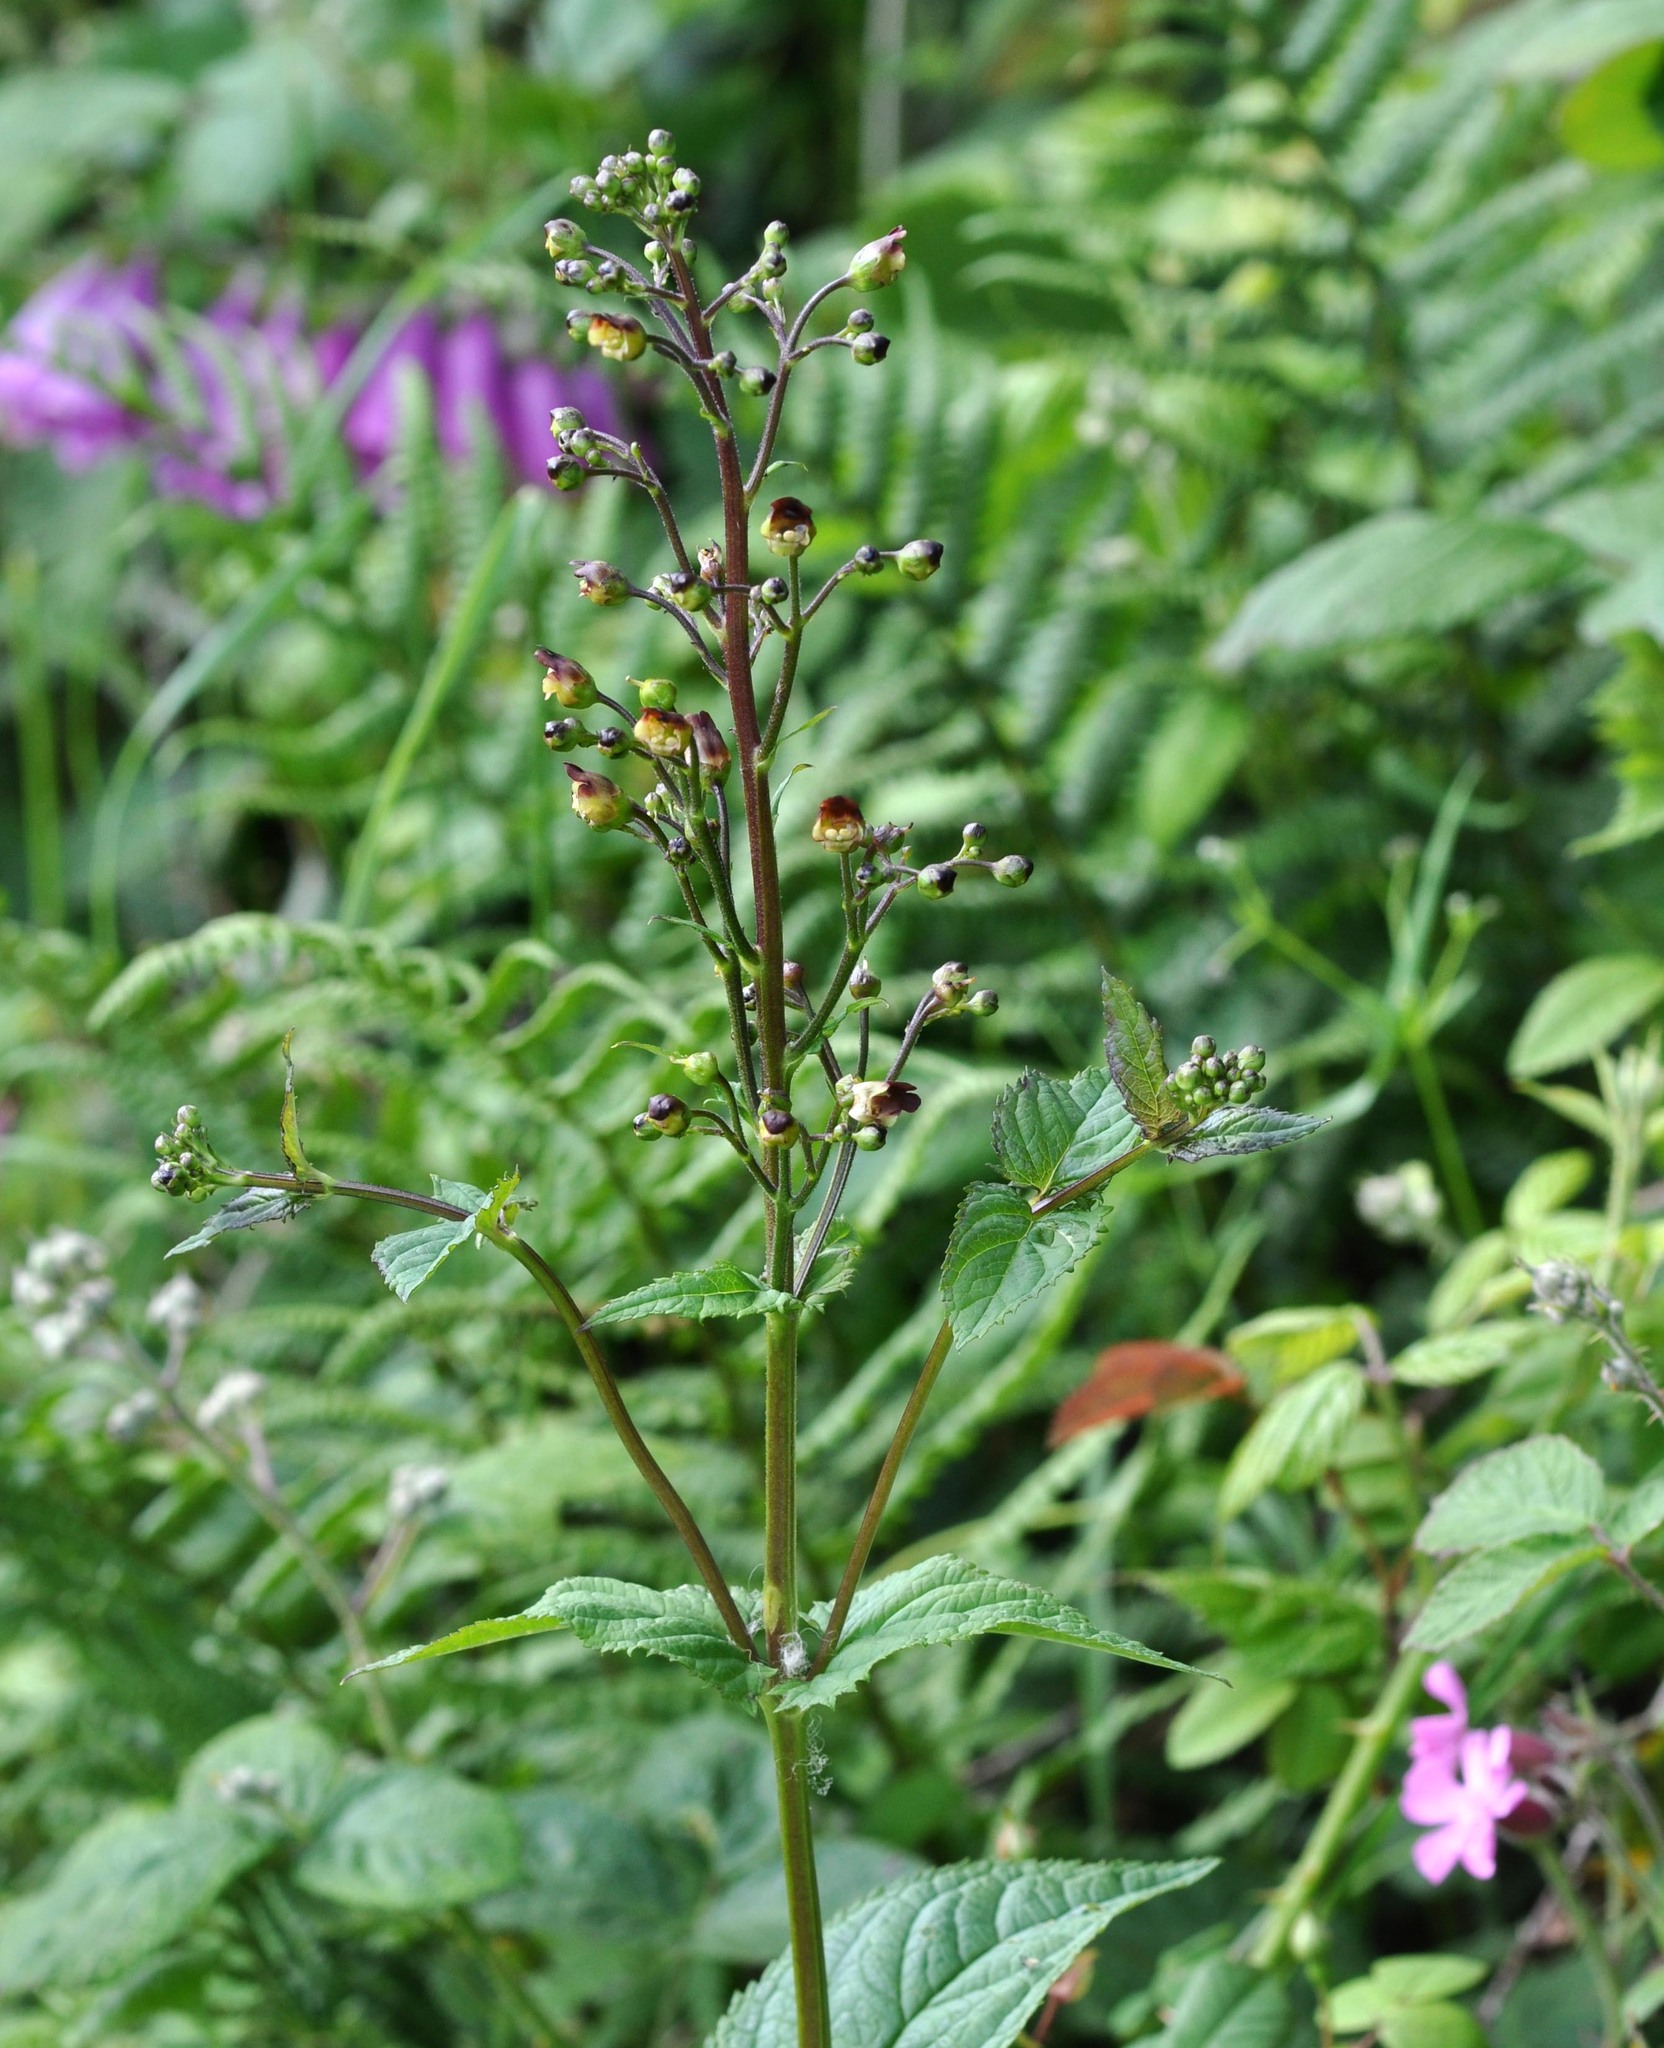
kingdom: Plantae
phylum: Tracheophyta
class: Magnoliopsida
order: Lamiales
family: Scrophulariaceae
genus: Scrophularia
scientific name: Scrophularia nodosa
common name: Common figwort
